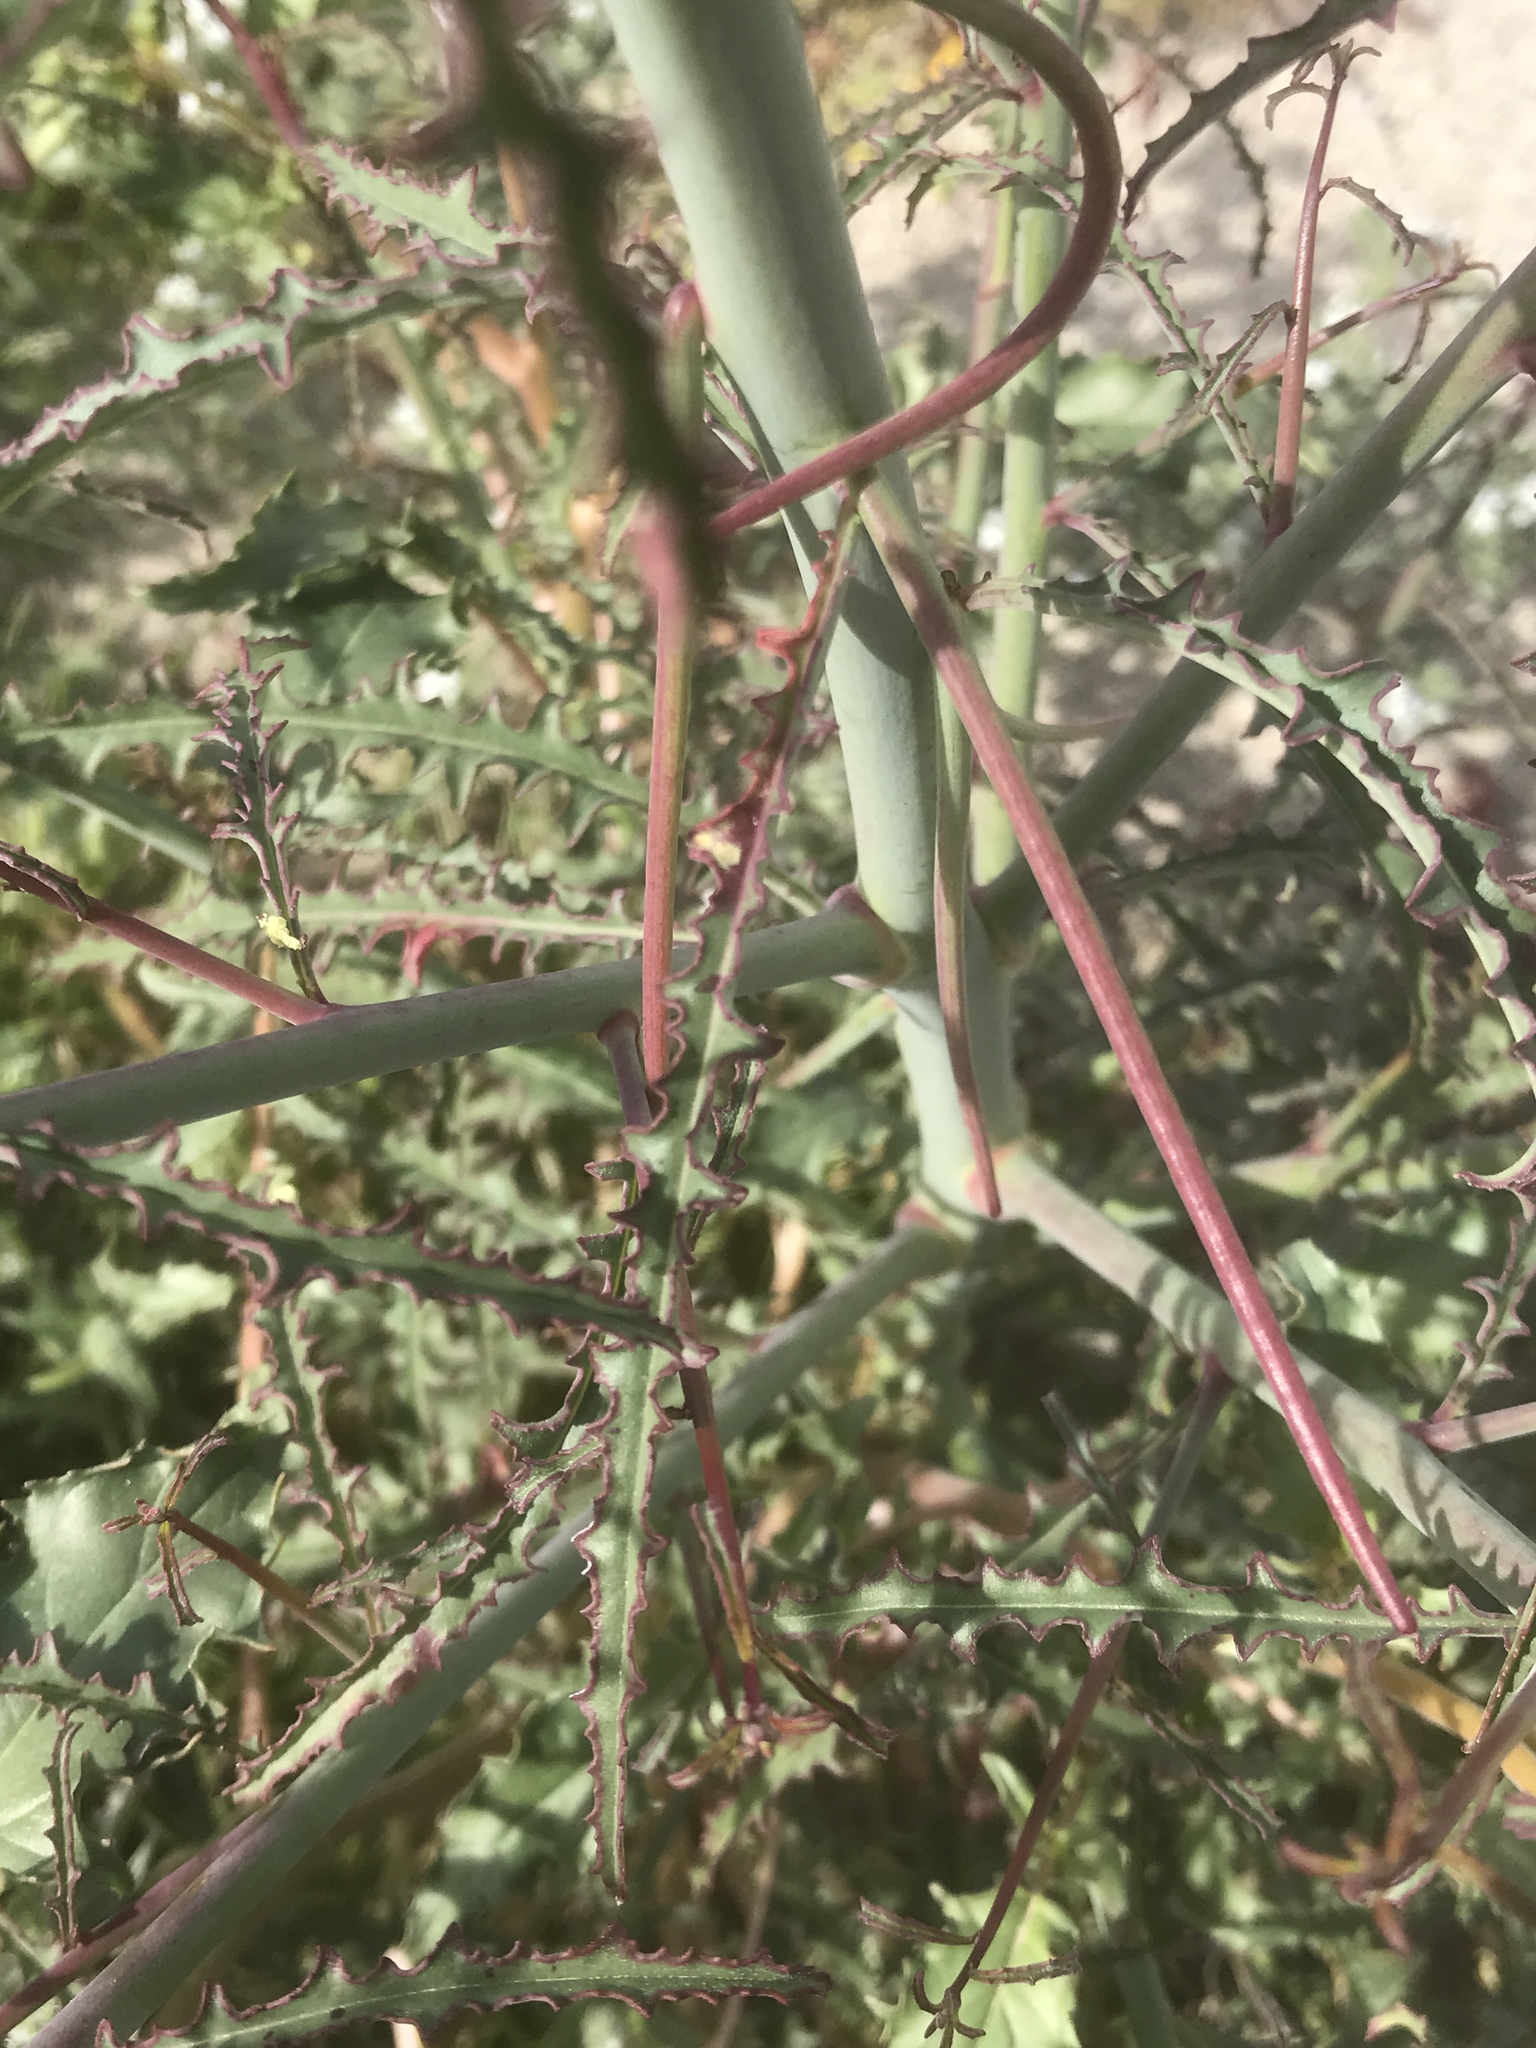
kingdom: Plantae
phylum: Tracheophyta
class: Magnoliopsida
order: Myrtales
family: Onagraceae
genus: Eulobus
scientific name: Eulobus californicus
